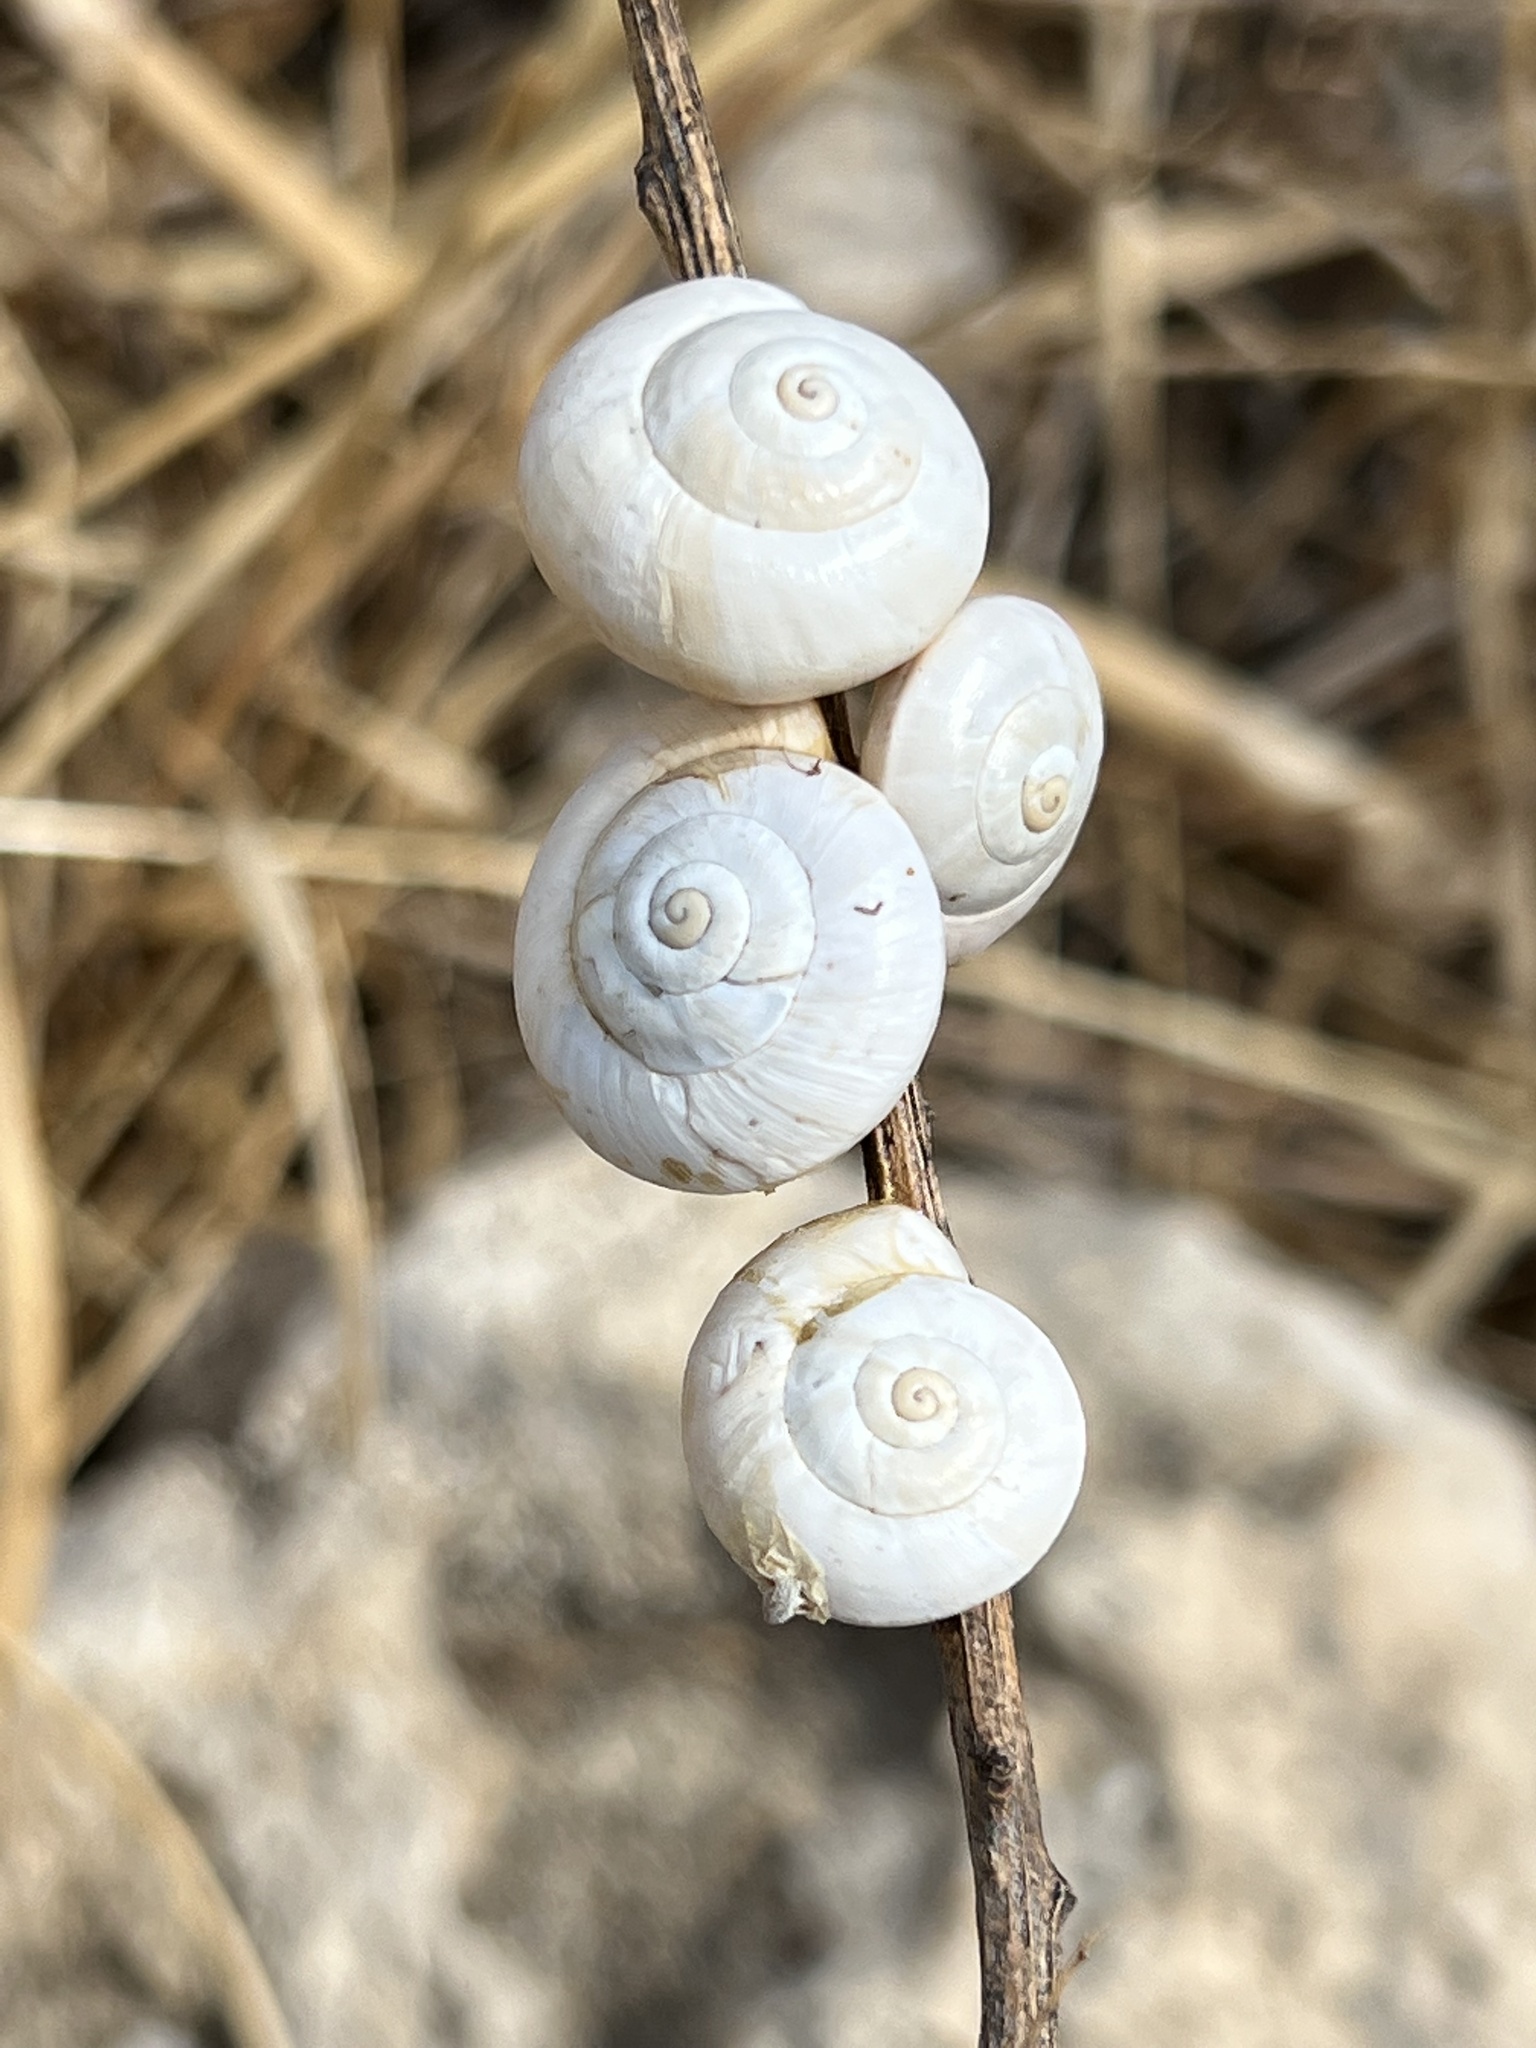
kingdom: Animalia
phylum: Mollusca
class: Gastropoda
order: Stylommatophora
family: Helicidae
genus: Theba
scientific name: Theba pisana
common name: White snail
